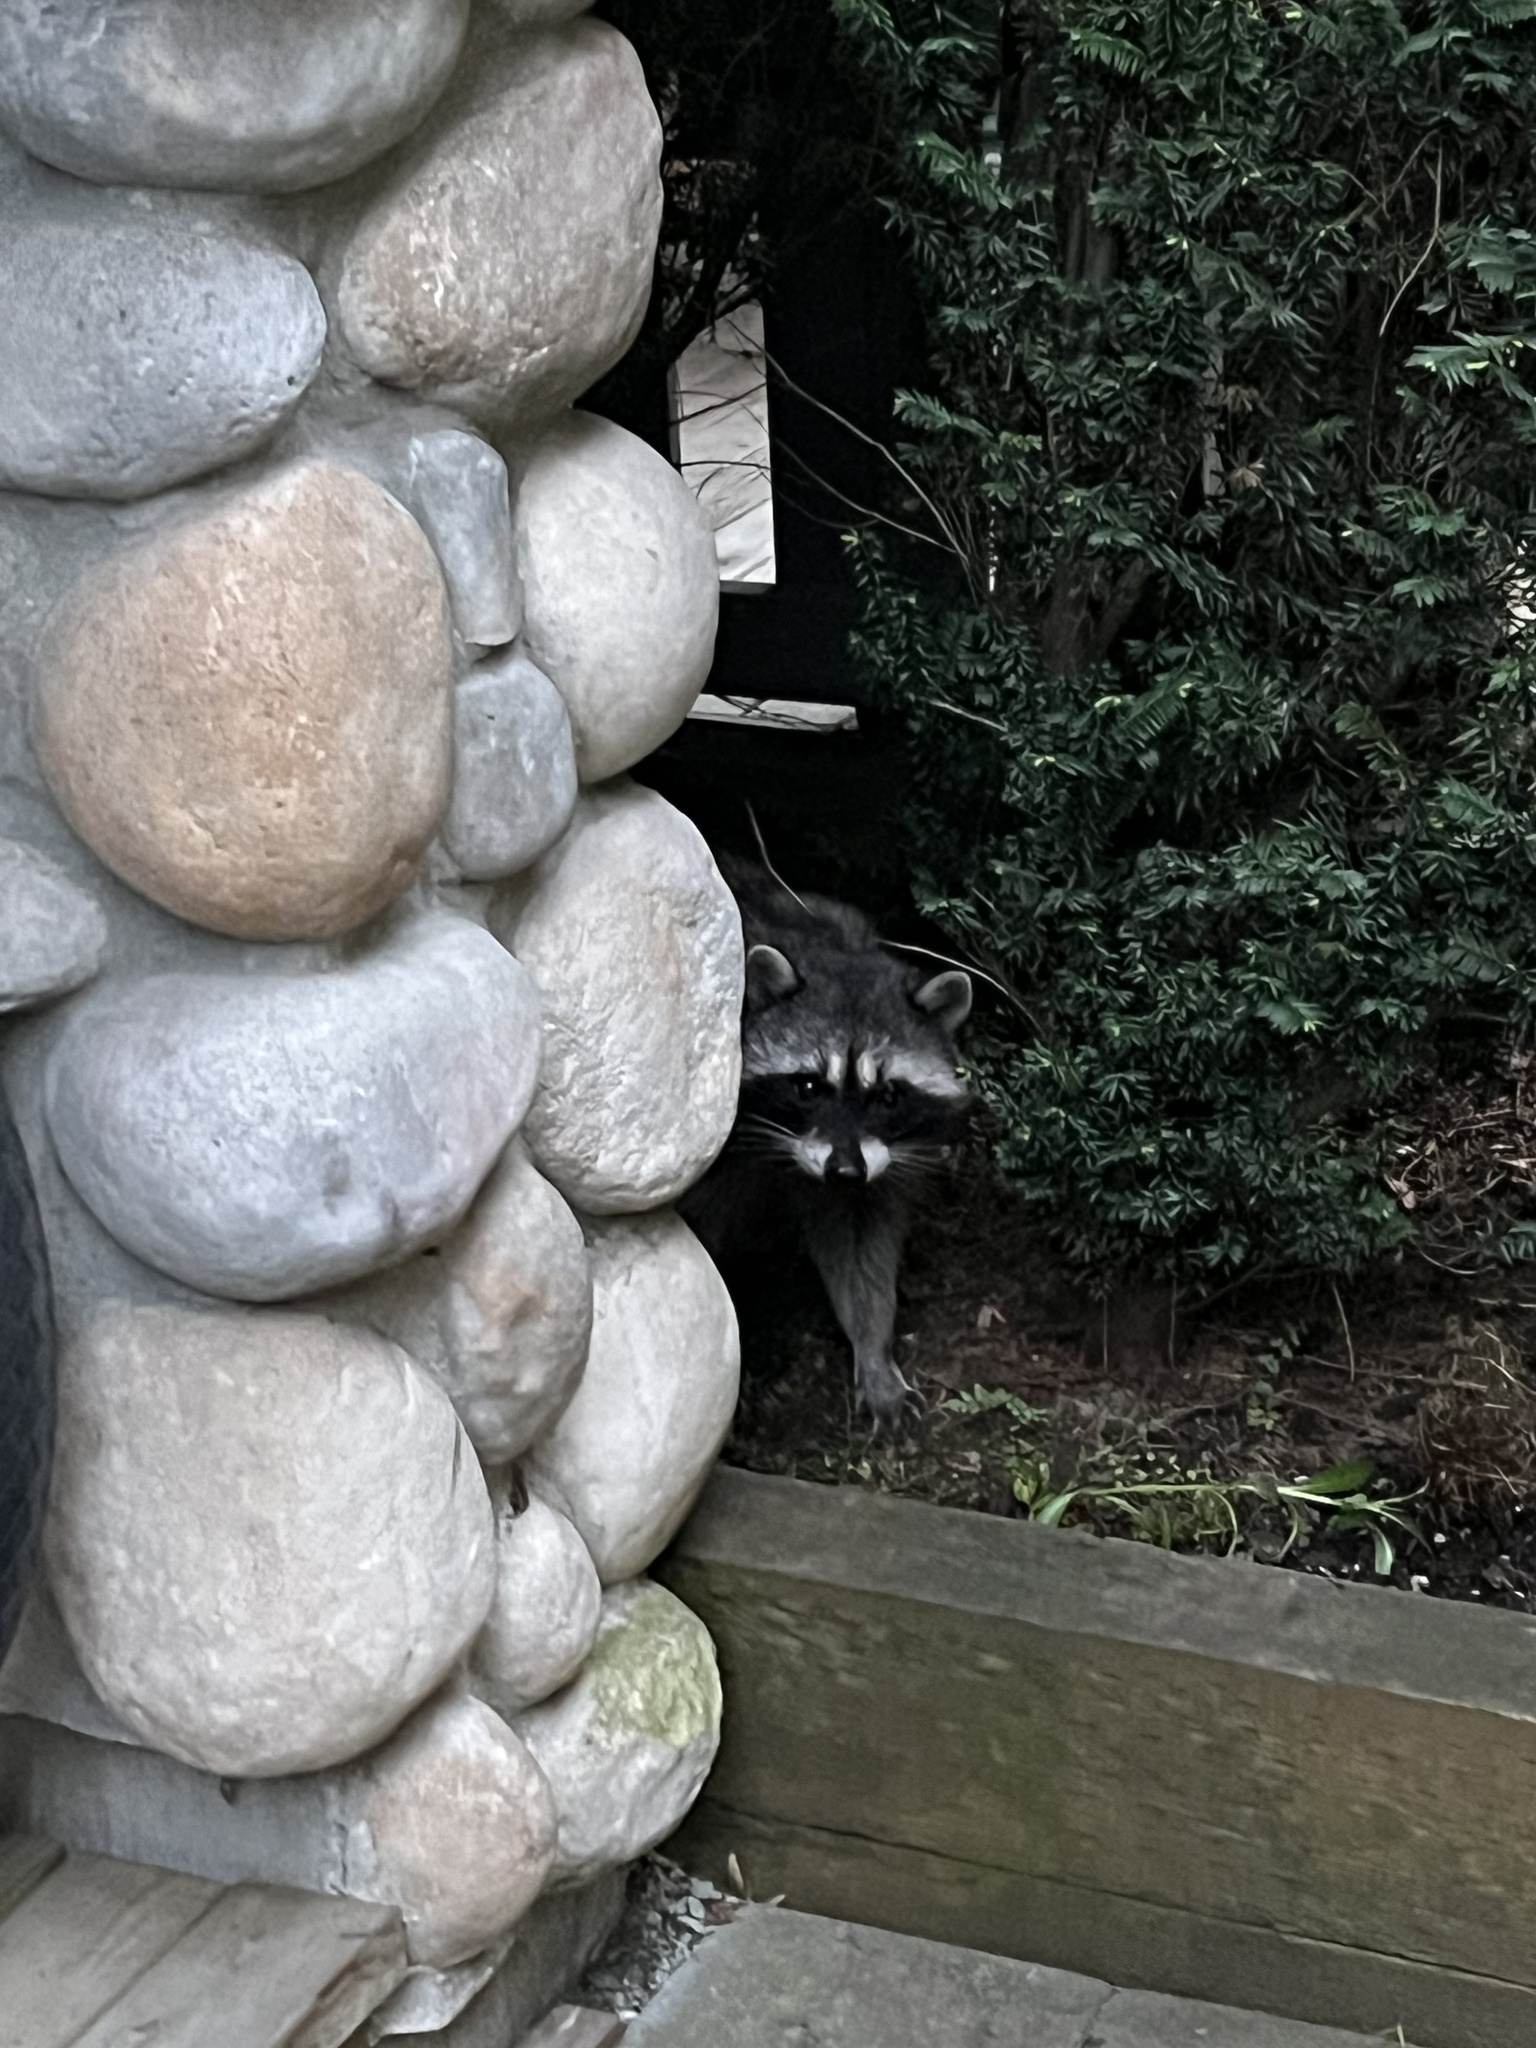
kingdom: Animalia
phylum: Chordata
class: Mammalia
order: Carnivora
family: Procyonidae
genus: Procyon
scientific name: Procyon lotor
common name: Raccoon
